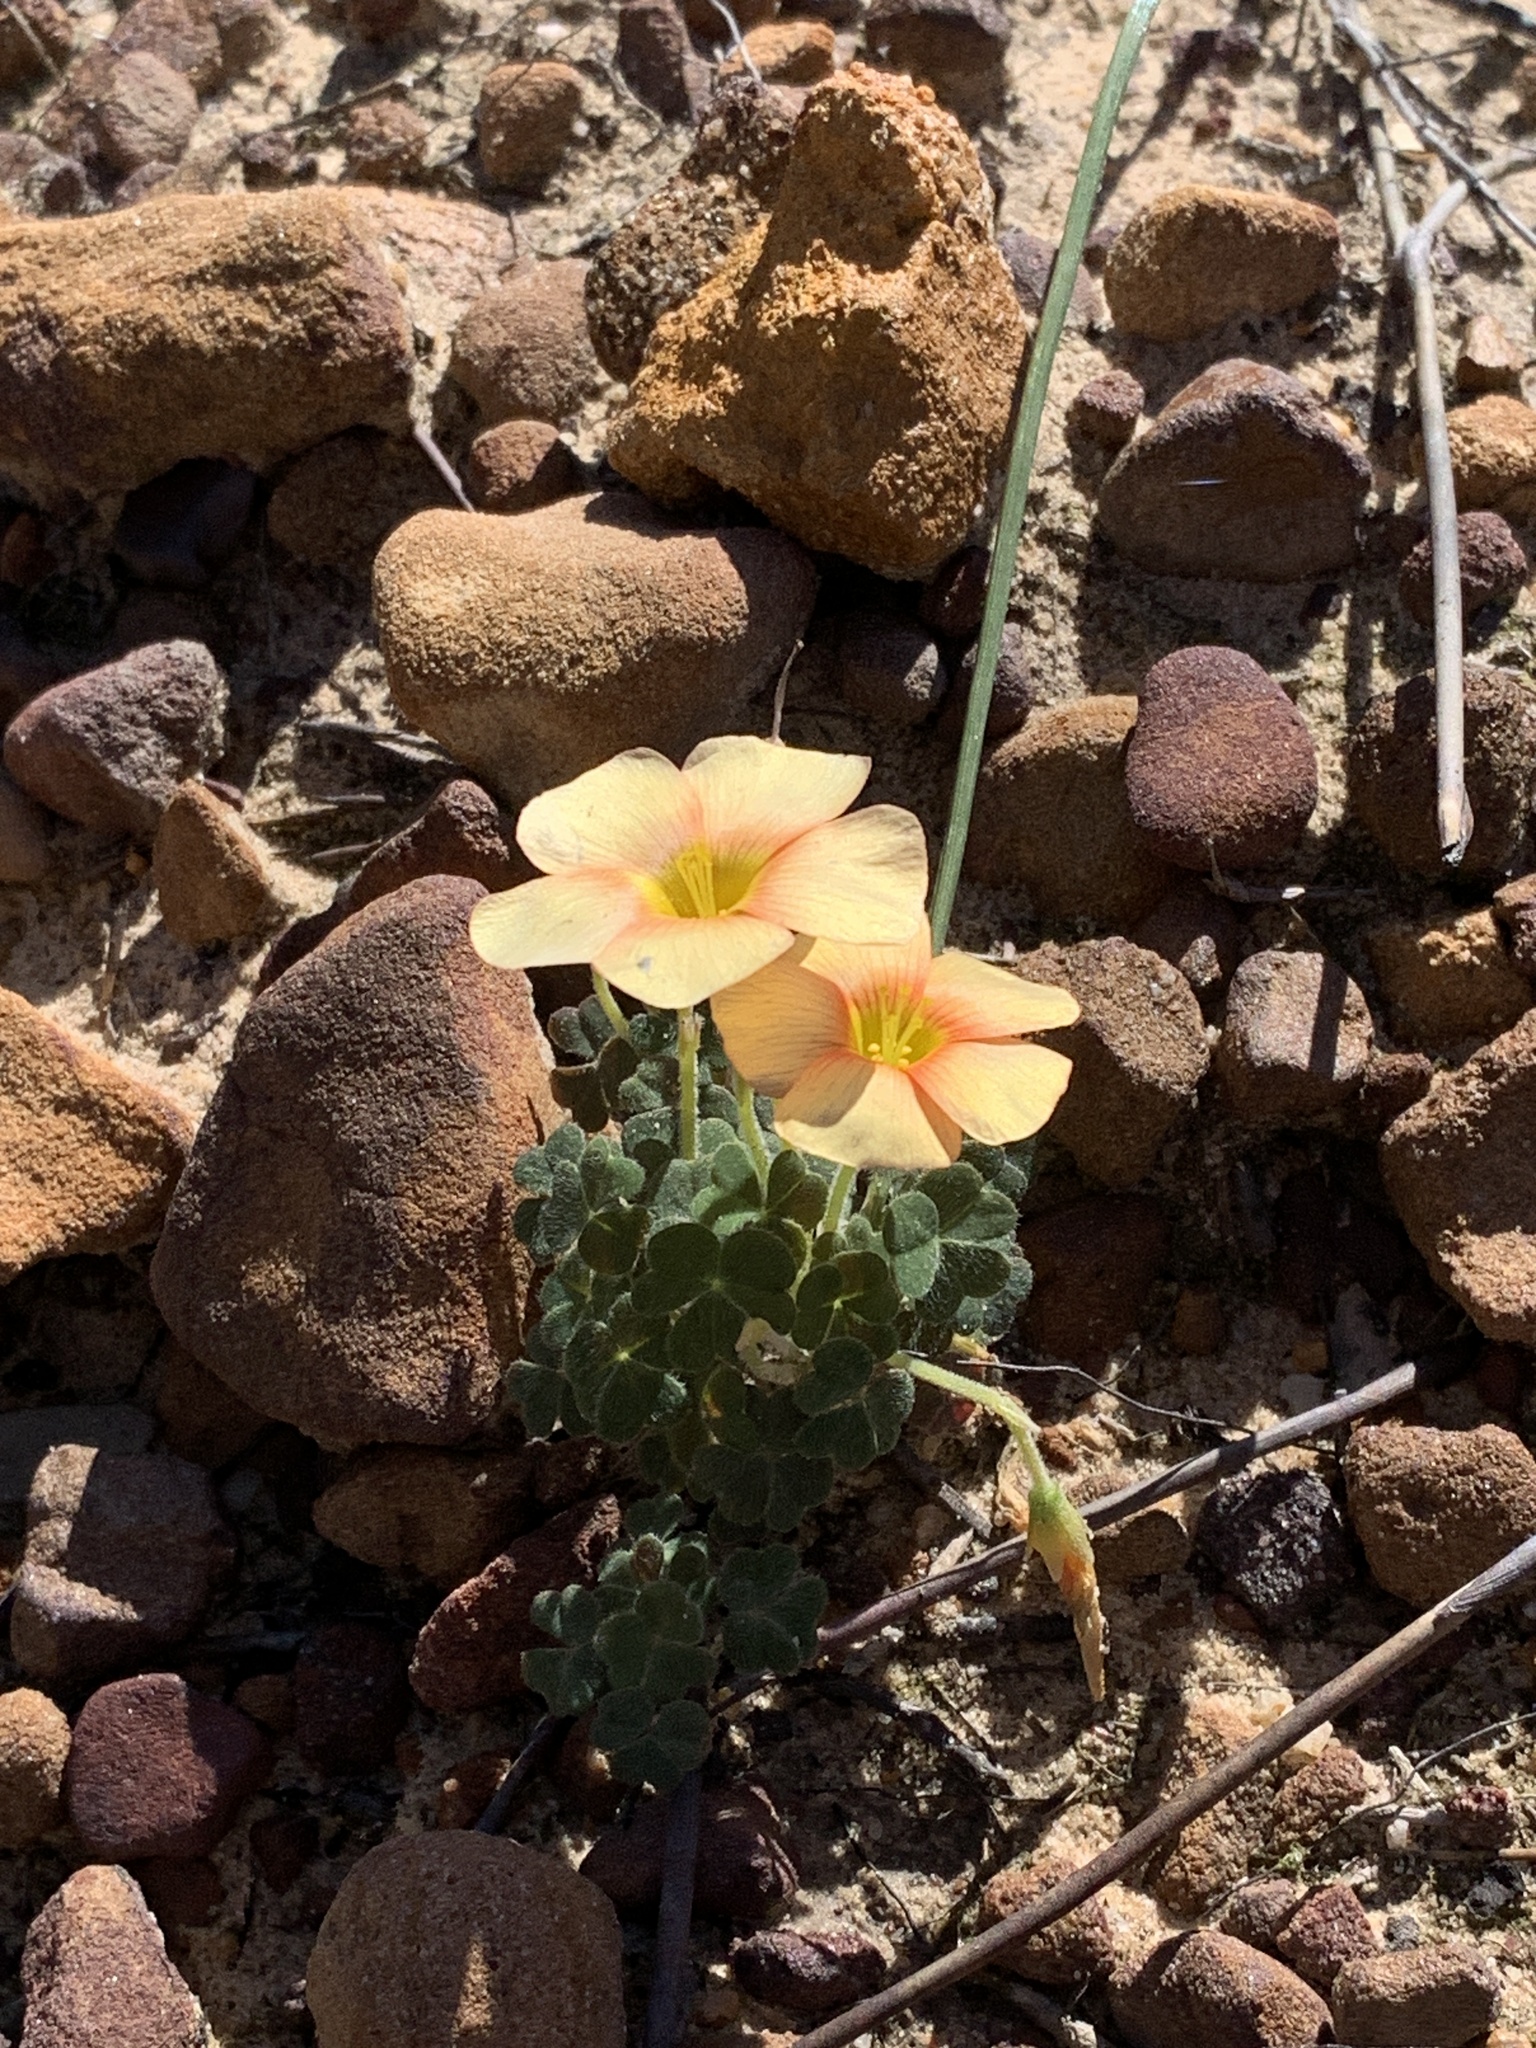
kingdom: Plantae
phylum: Tracheophyta
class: Magnoliopsida
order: Oxalidales
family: Oxalidaceae
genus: Oxalis
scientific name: Oxalis obtusa
